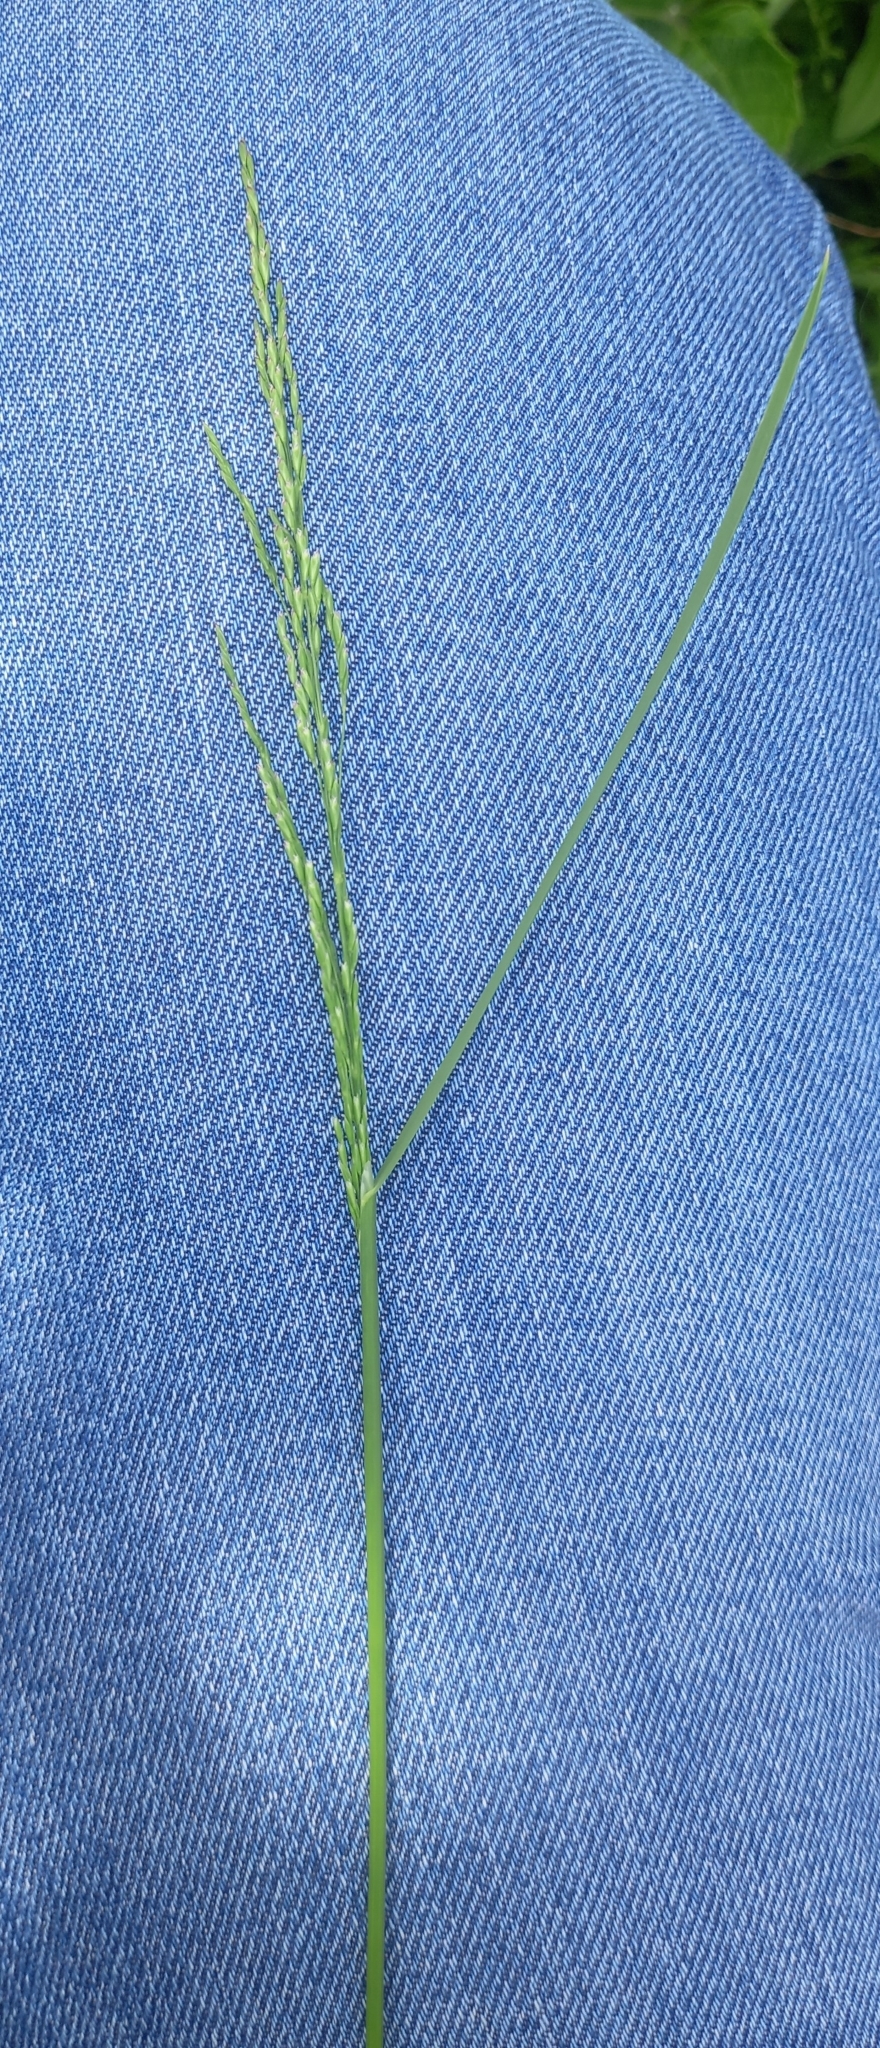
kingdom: Plantae
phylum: Tracheophyta
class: Liliopsida
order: Poales
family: Poaceae
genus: Poa
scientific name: Poa palustris
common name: Swamp meadow-grass
